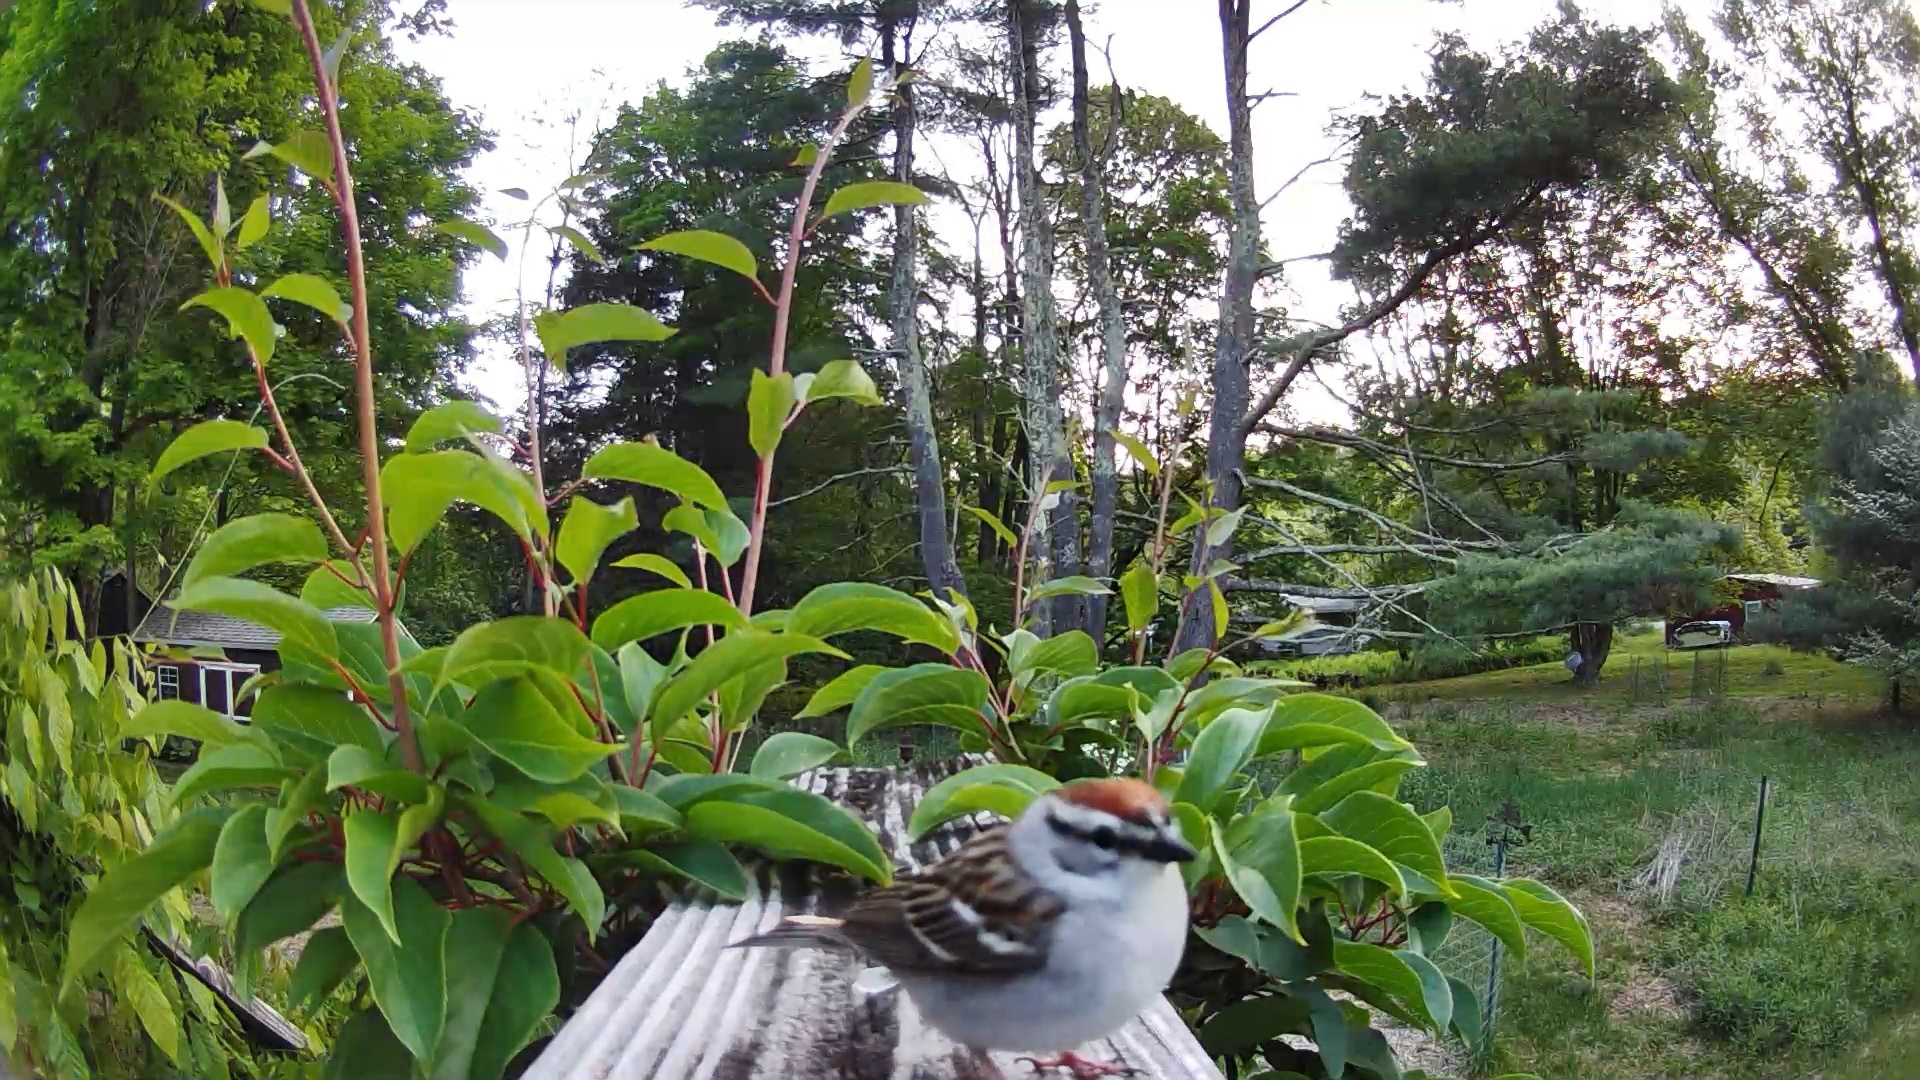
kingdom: Animalia
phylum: Chordata
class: Aves
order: Passeriformes
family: Passerellidae
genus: Spizella
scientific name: Spizella passerina
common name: Chipping sparrow
